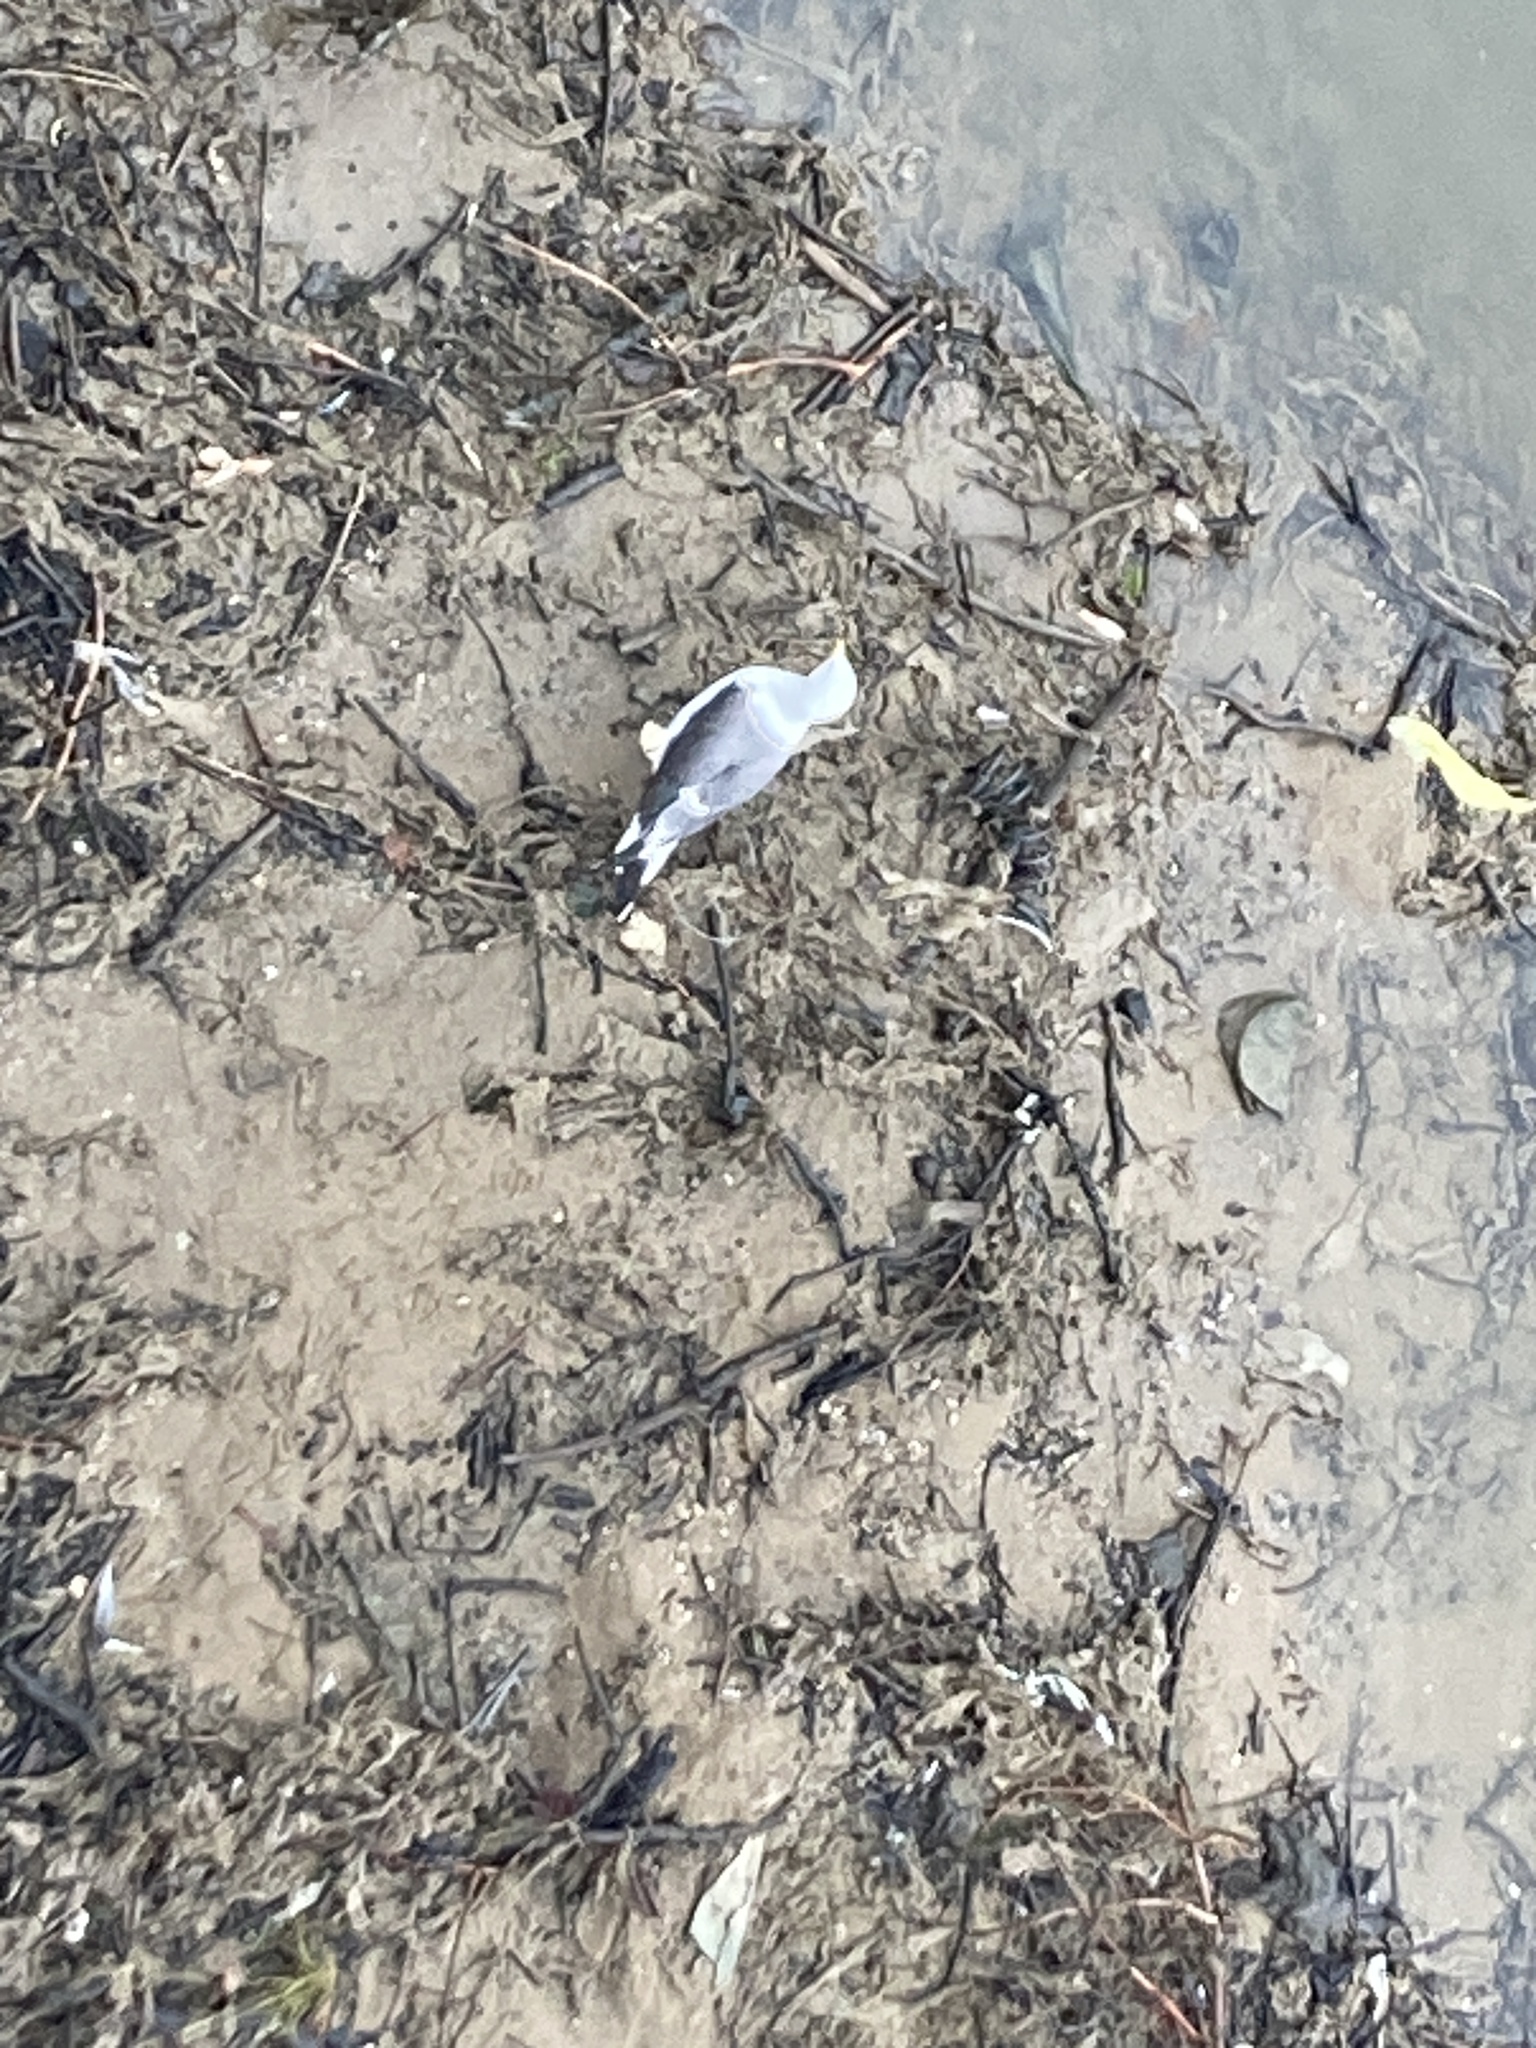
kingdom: Animalia
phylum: Chordata
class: Aves
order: Charadriiformes
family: Laridae
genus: Larus
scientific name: Larus fuscus
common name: Lesser black-backed gull
